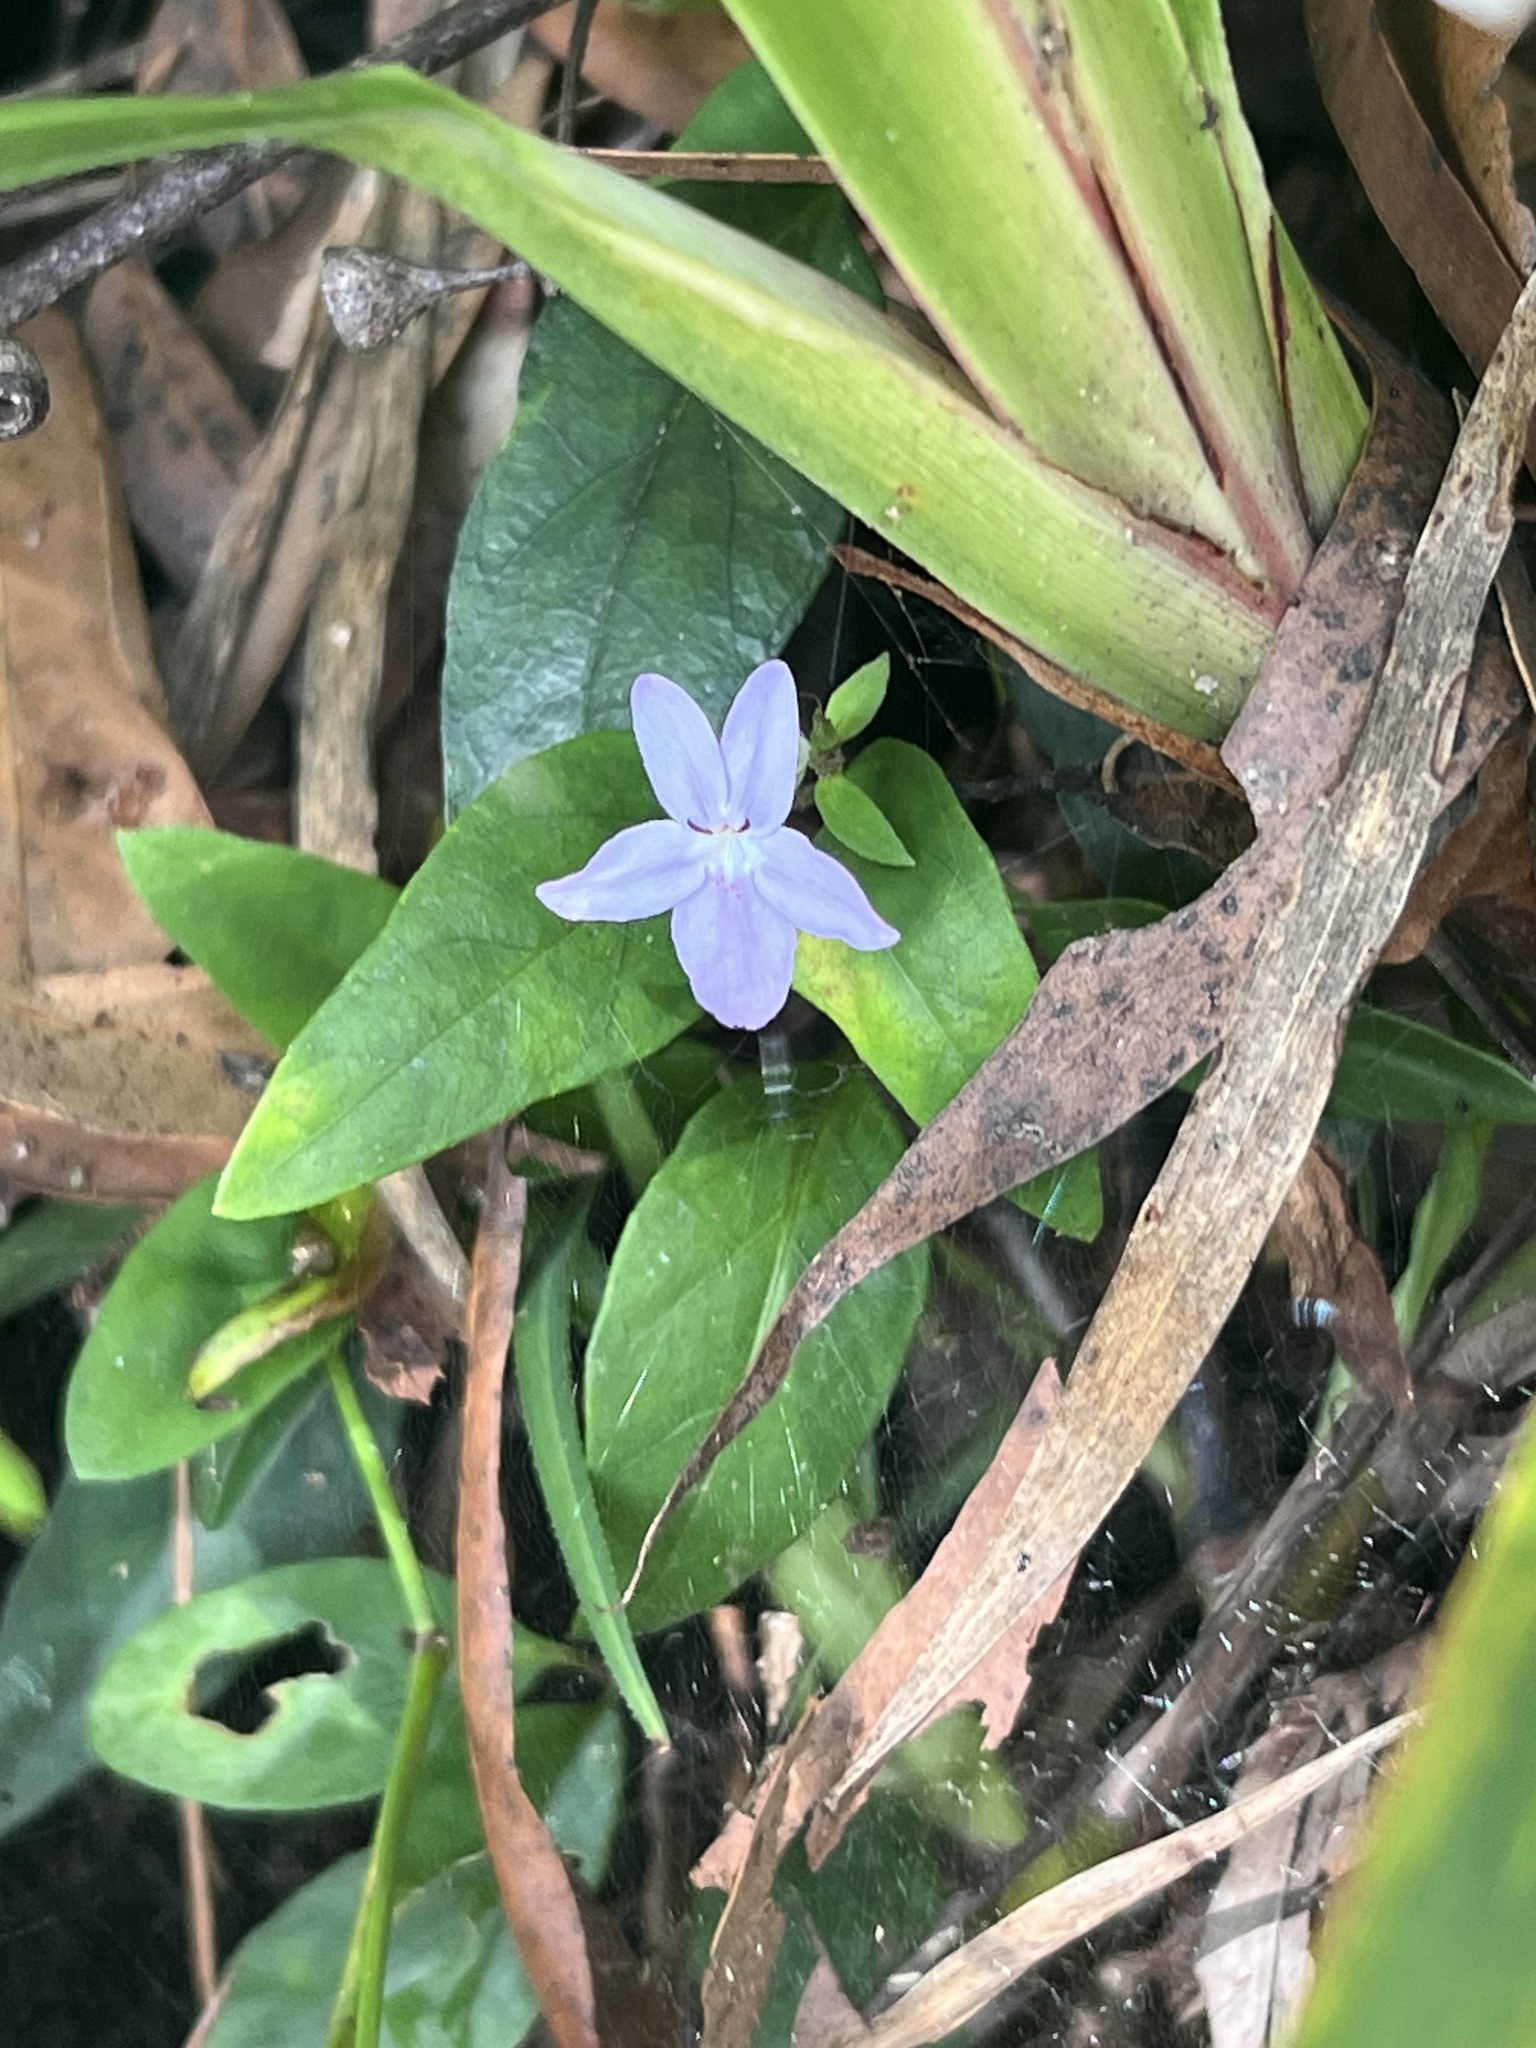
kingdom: Plantae
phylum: Tracheophyta
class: Magnoliopsida
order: Lamiales
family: Acanthaceae
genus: Pseuderanthemum
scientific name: Pseuderanthemum variabile
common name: Night and afternoon
